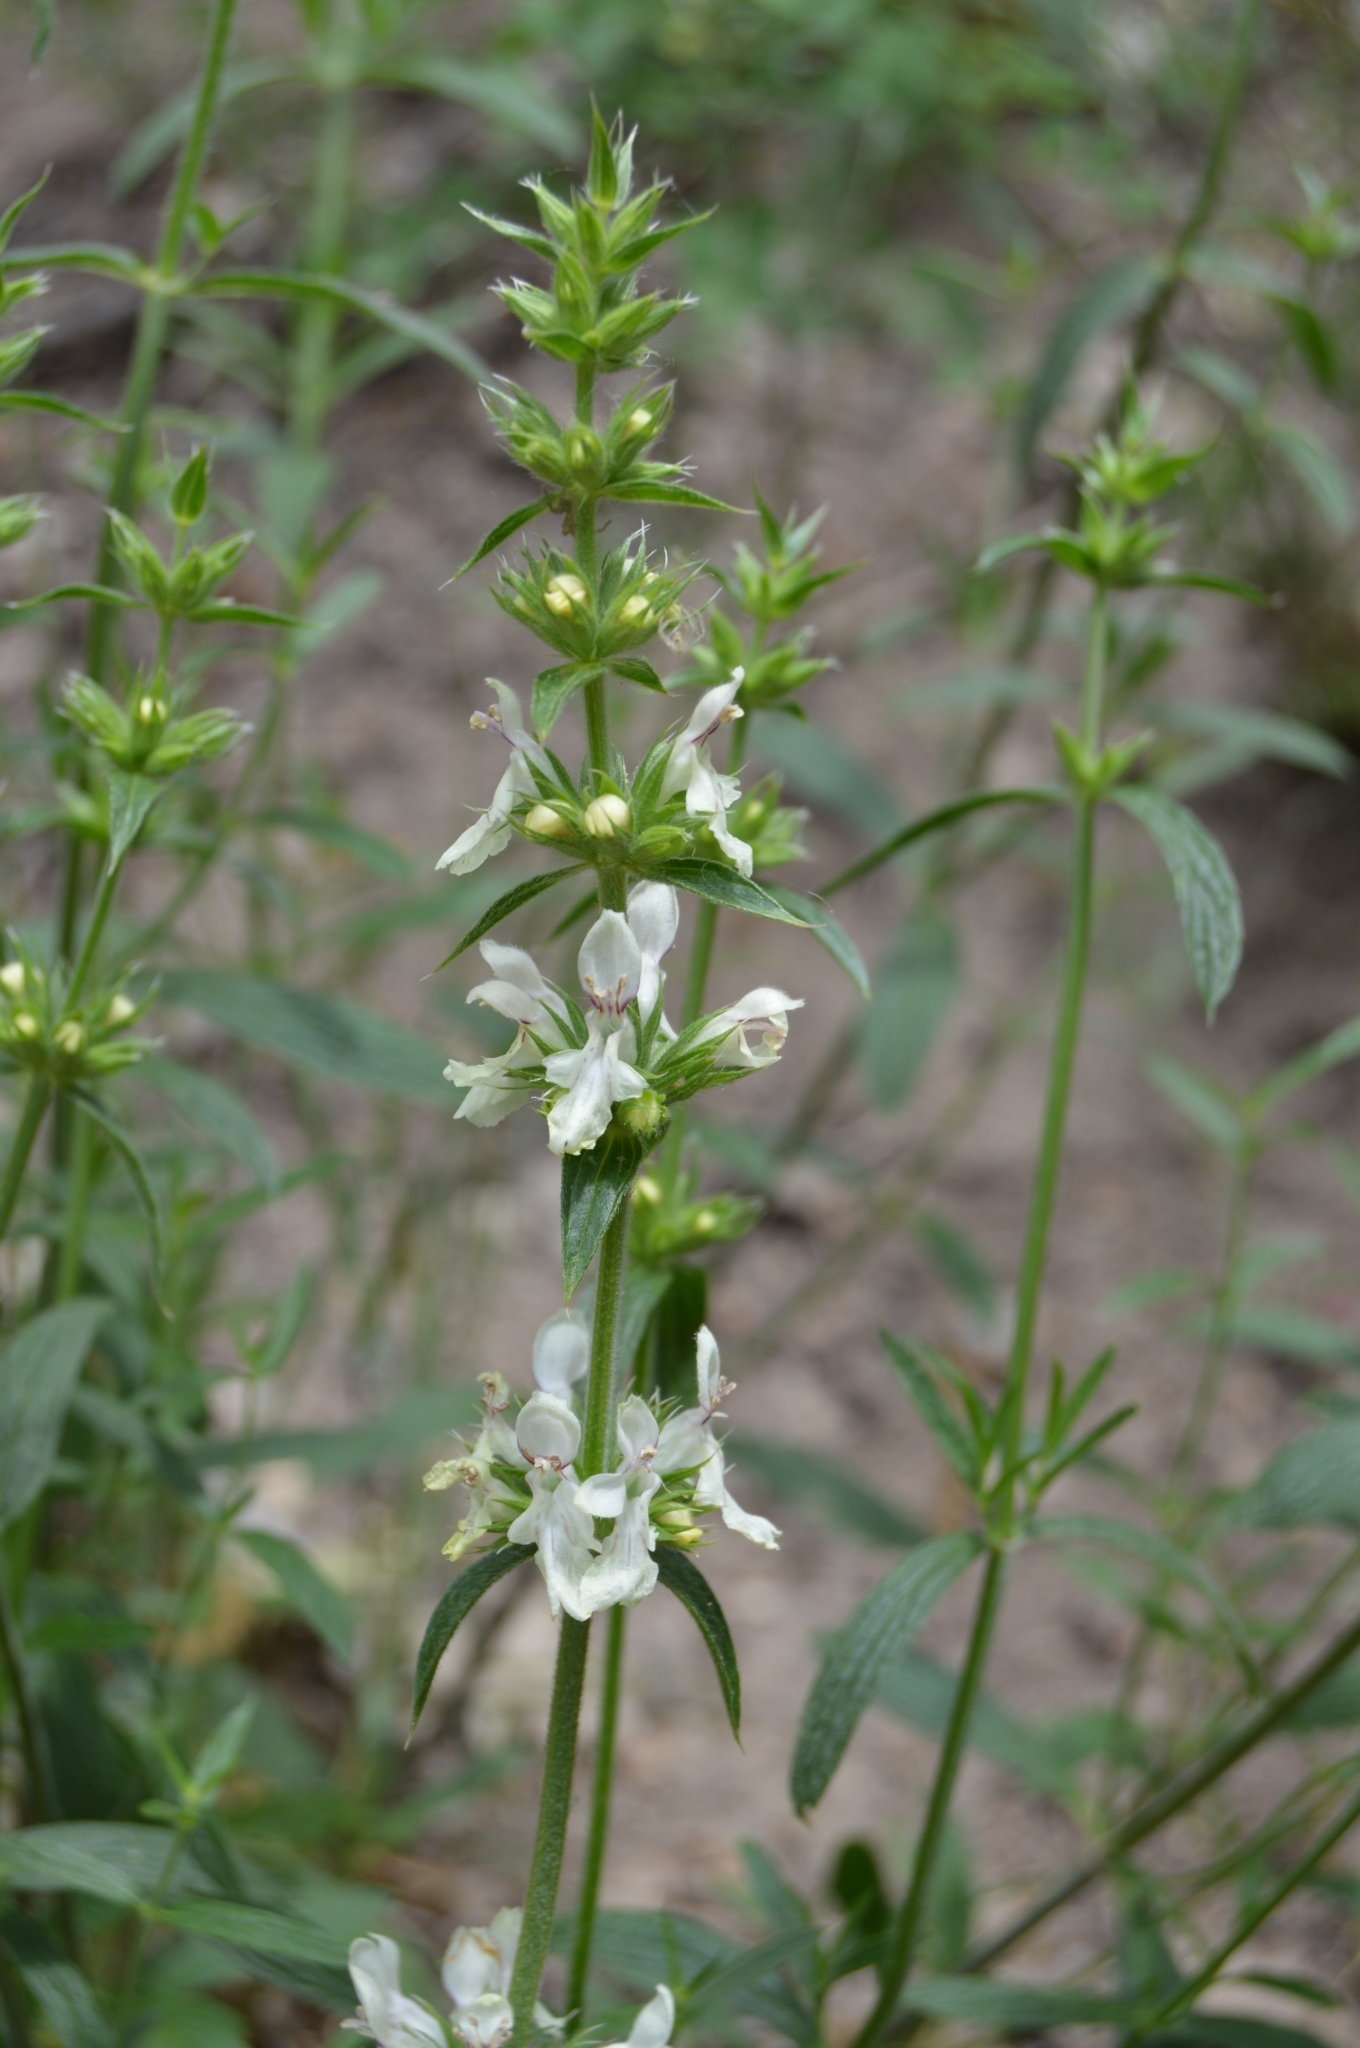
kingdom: Plantae
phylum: Tracheophyta
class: Magnoliopsida
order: Lamiales
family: Lamiaceae
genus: Stachys
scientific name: Stachys atherocalyx
